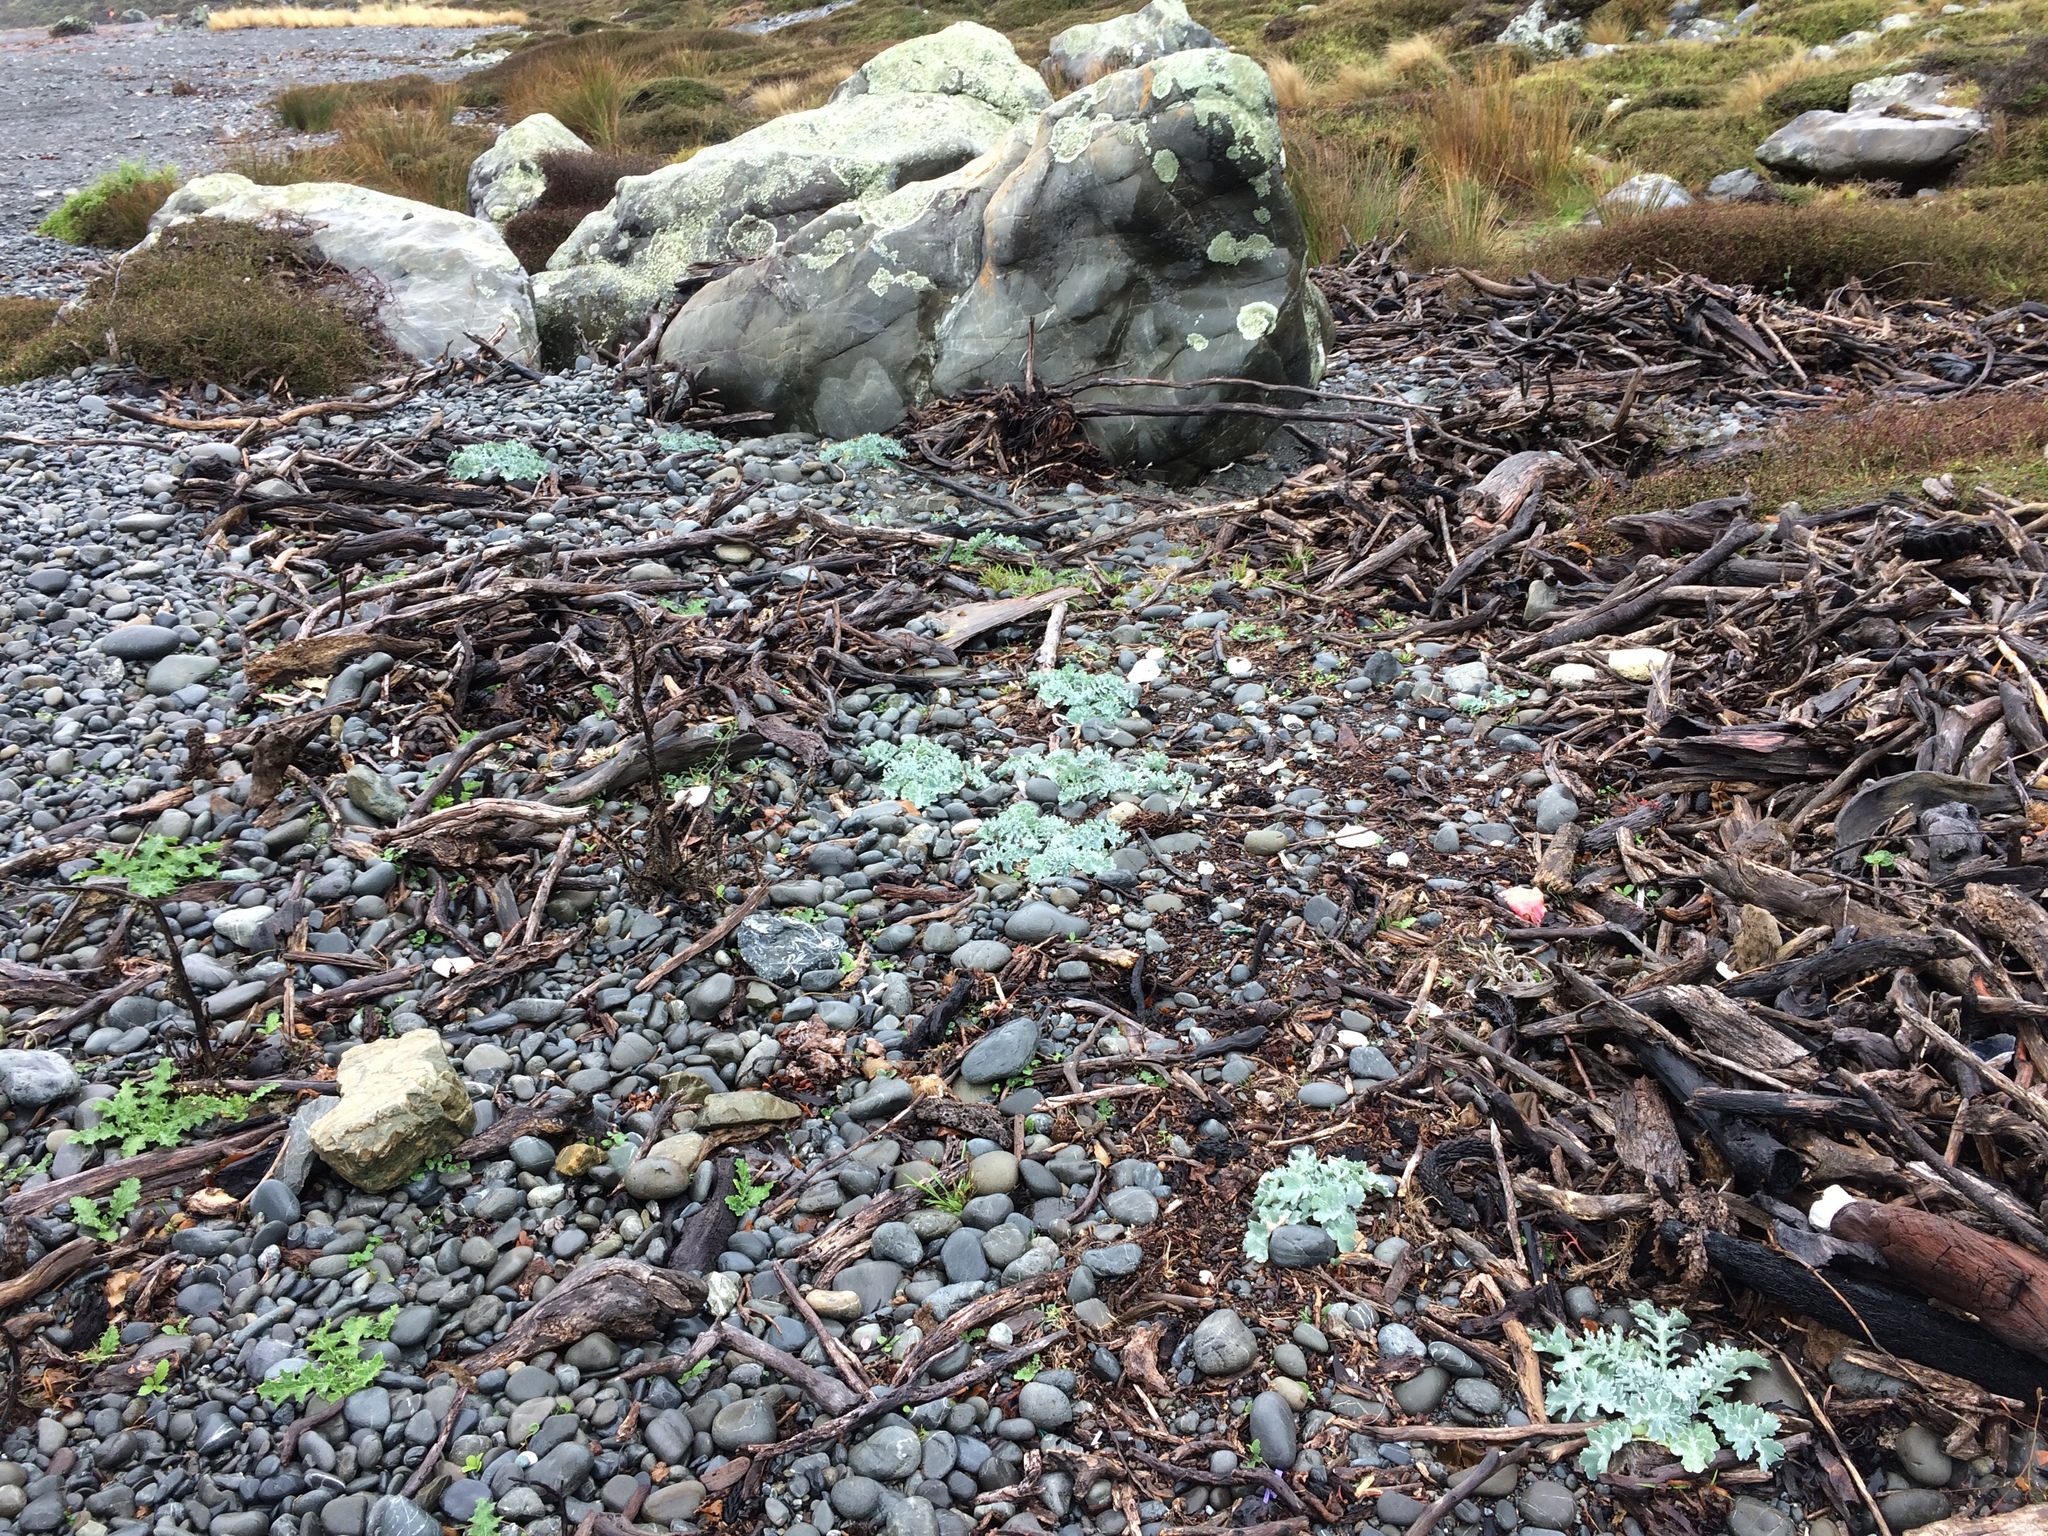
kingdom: Plantae
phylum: Tracheophyta
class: Magnoliopsida
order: Ranunculales
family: Papaveraceae
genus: Glaucium
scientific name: Glaucium flavum
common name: Yellow horned-poppy
